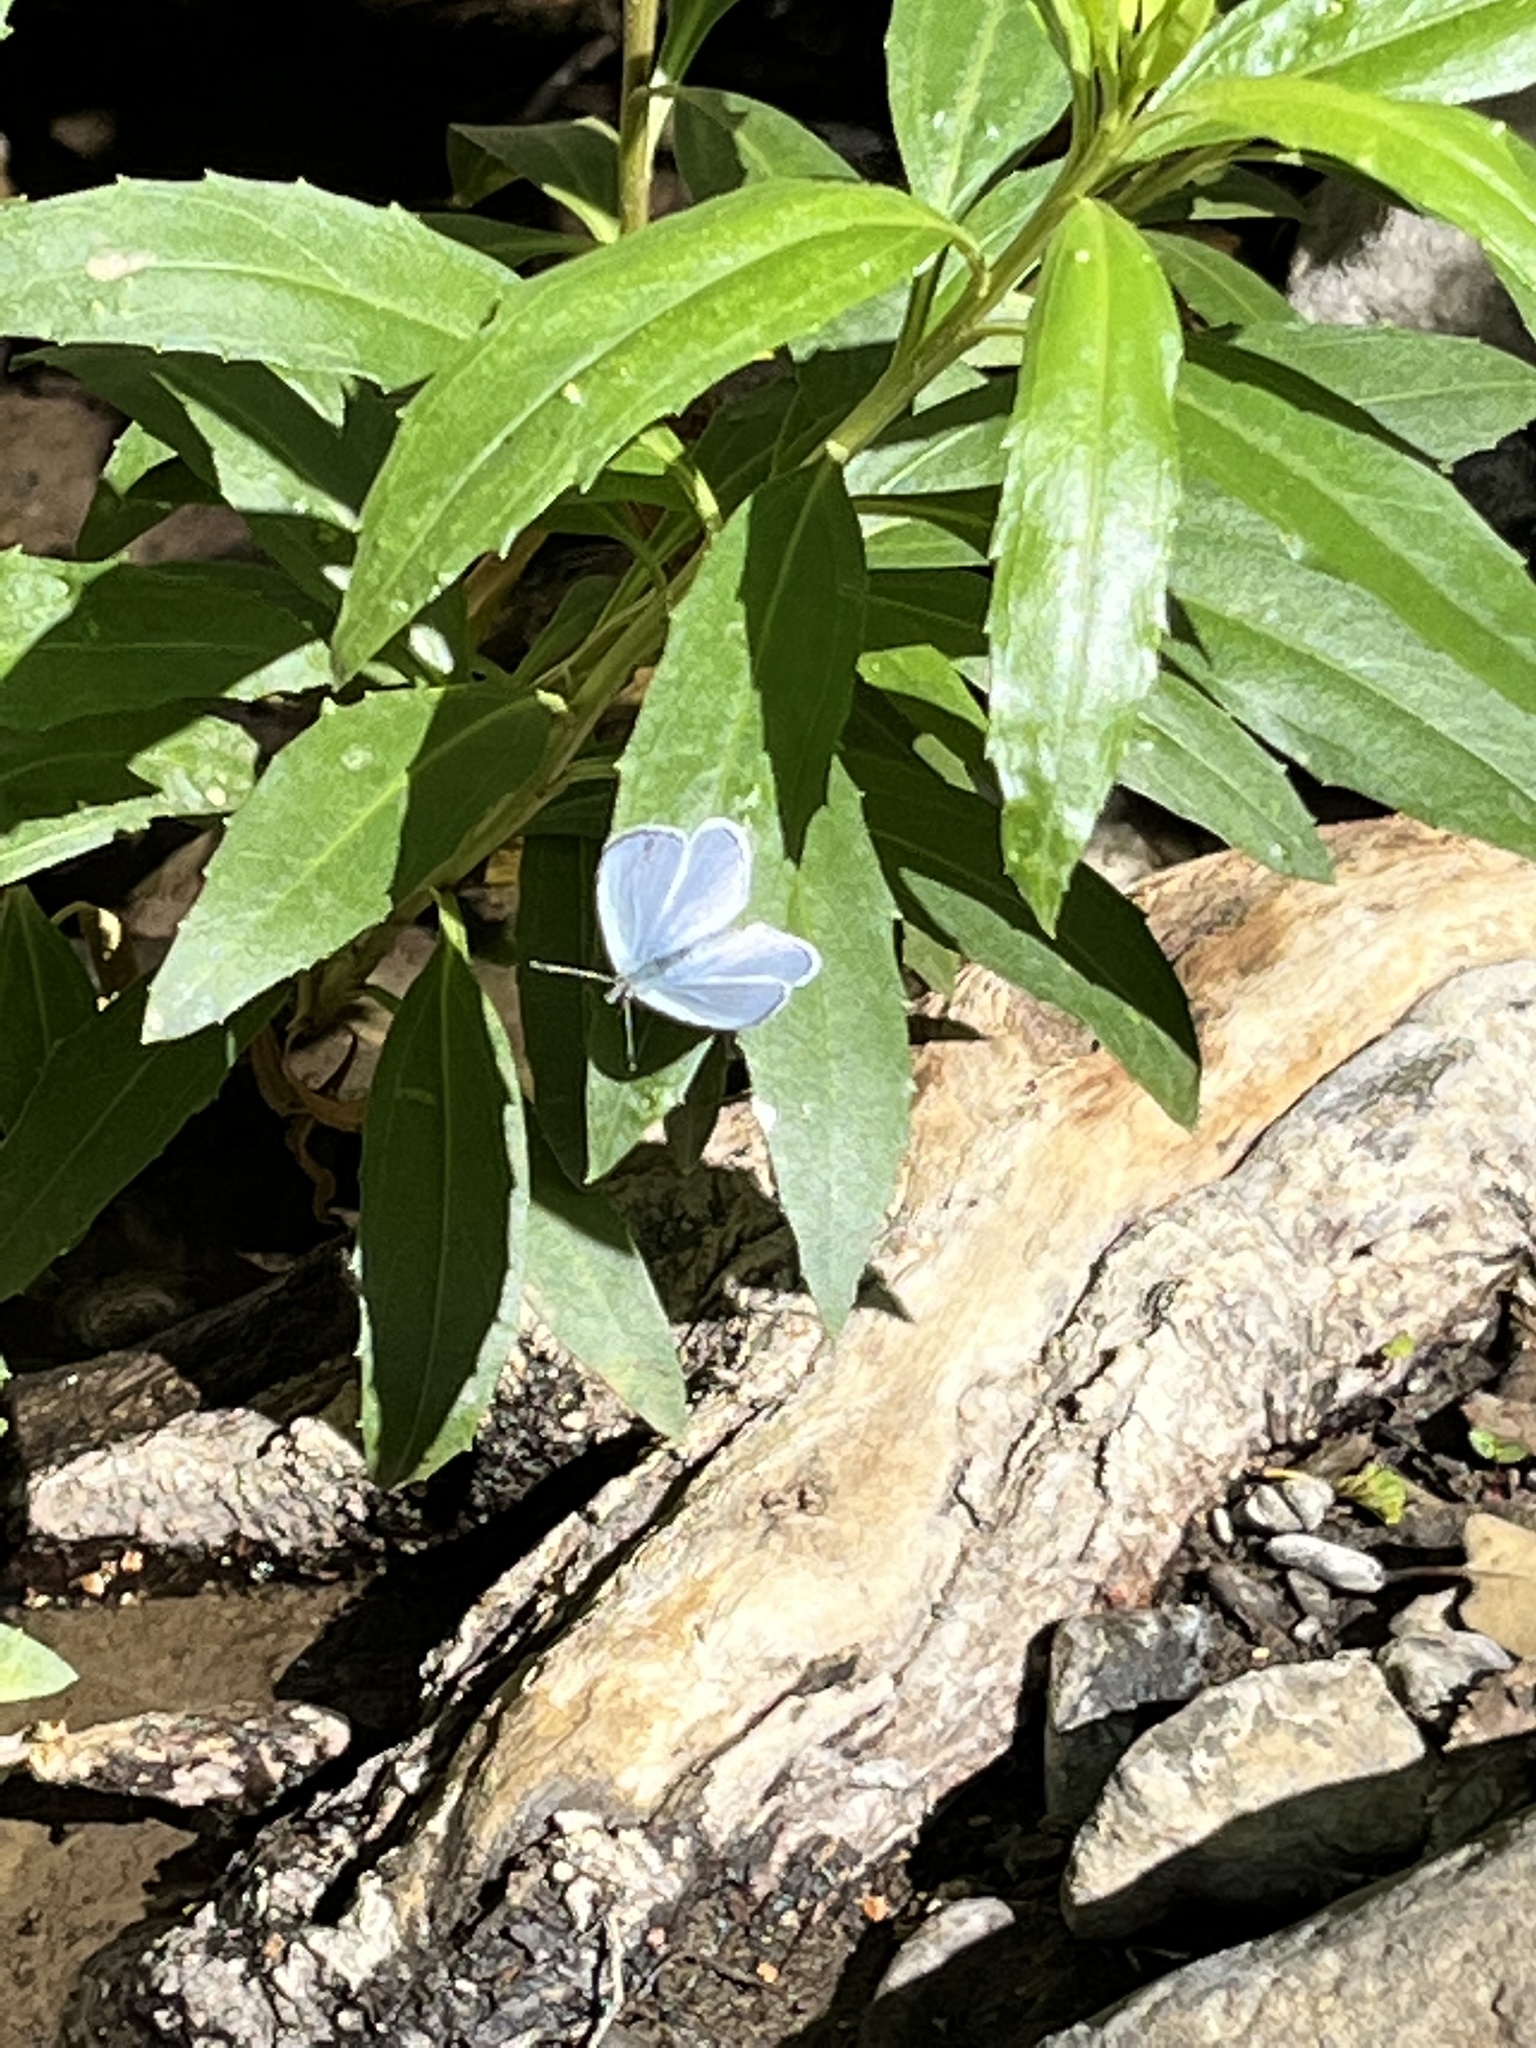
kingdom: Animalia
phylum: Arthropoda
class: Insecta
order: Lepidoptera
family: Lycaenidae
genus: Celastrina
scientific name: Celastrina ladon
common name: Spring azure
